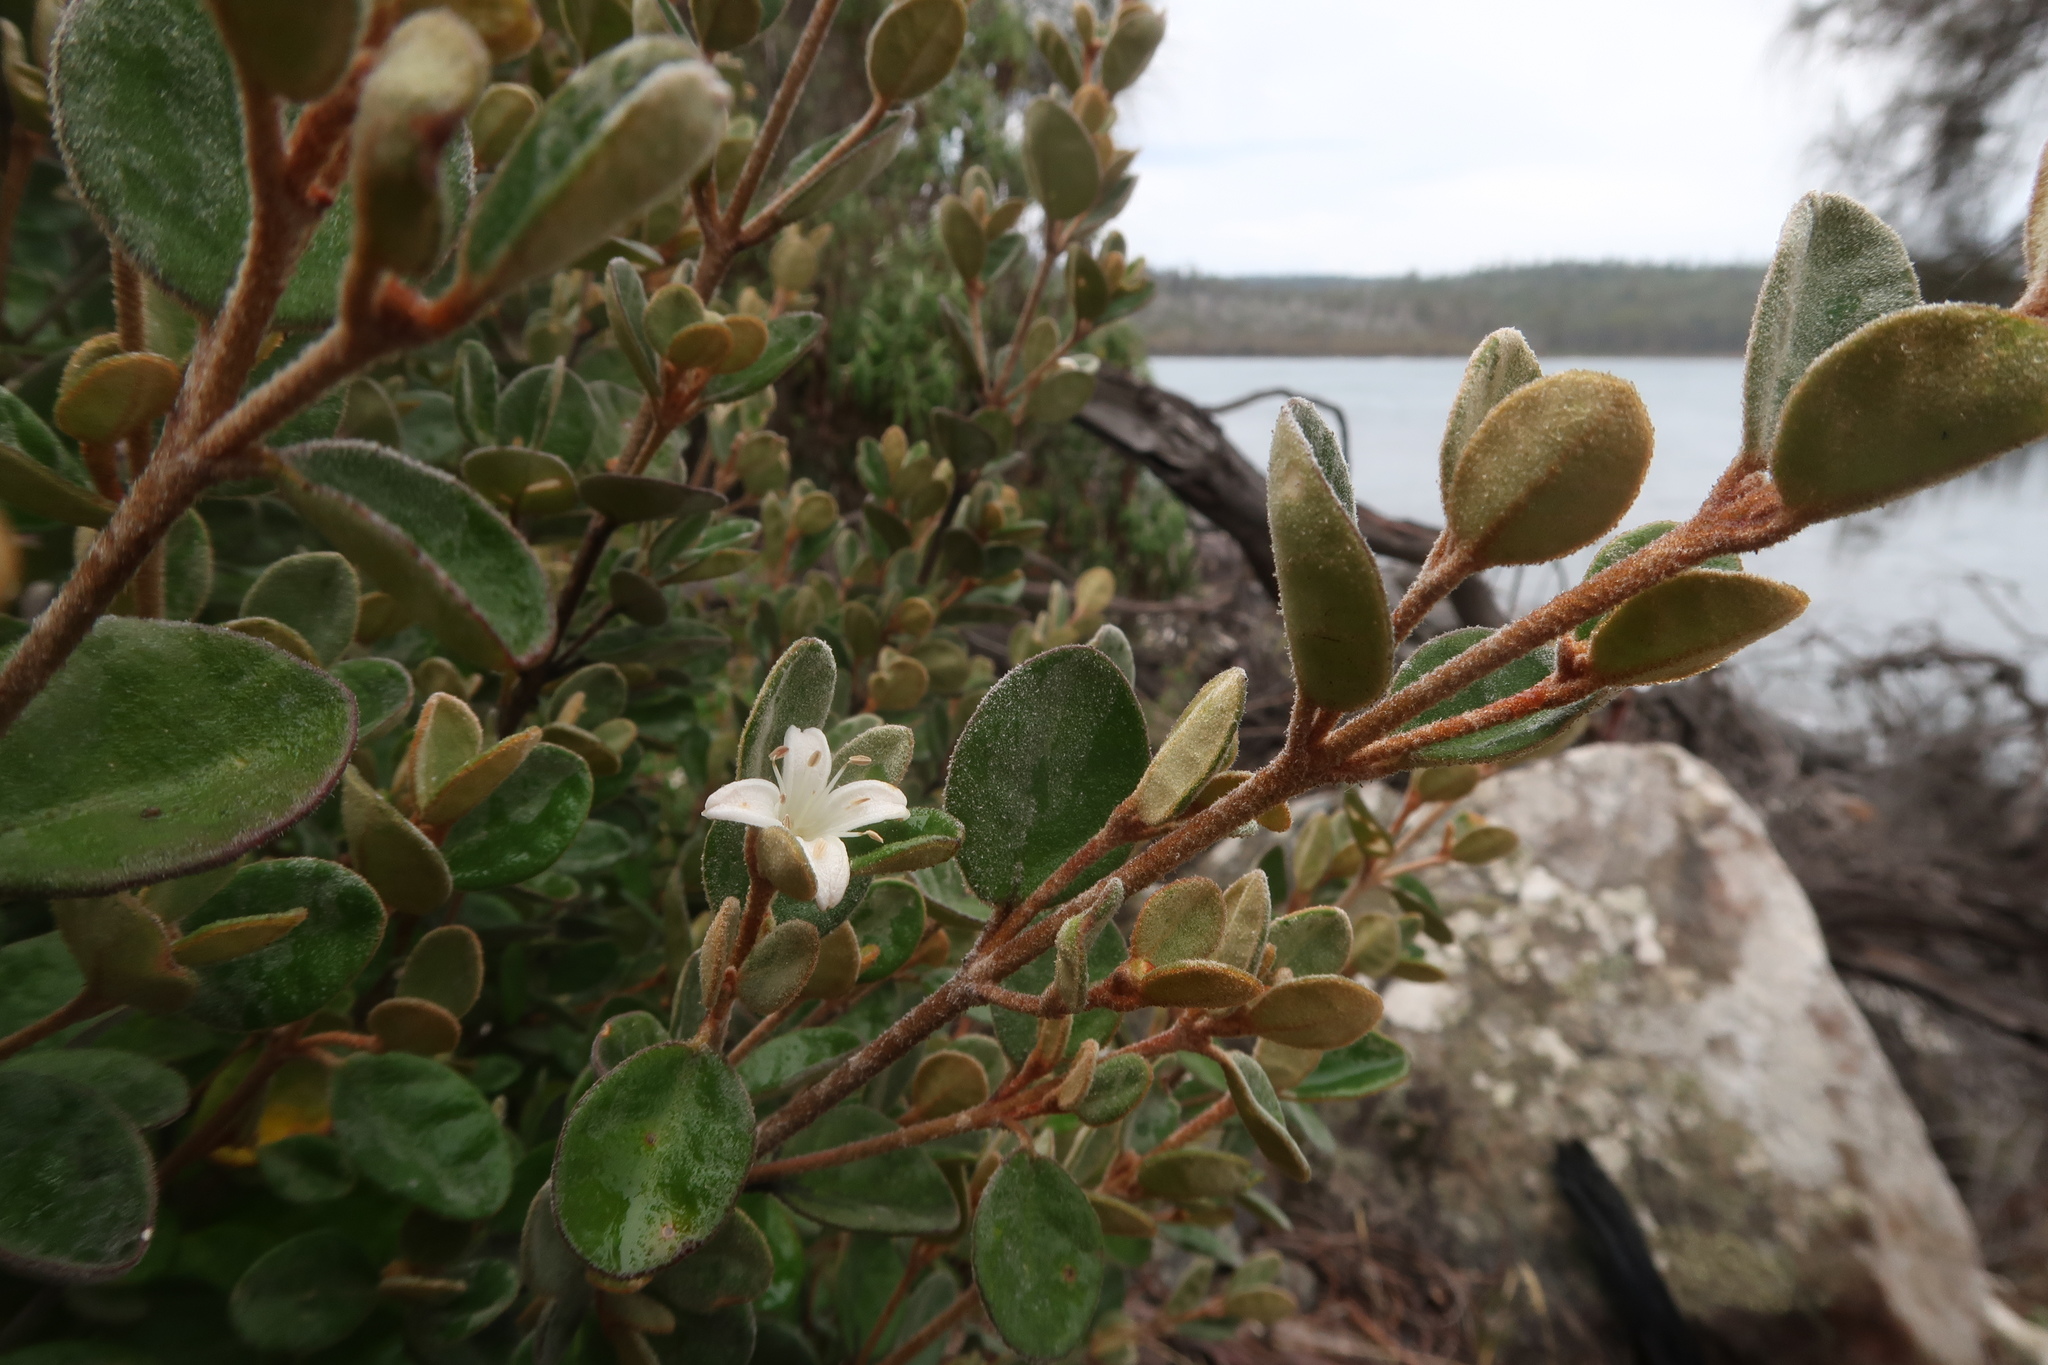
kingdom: Plantae
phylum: Tracheophyta
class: Magnoliopsida
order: Sapindales
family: Rutaceae
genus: Correa
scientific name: Correa alba
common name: White correa
